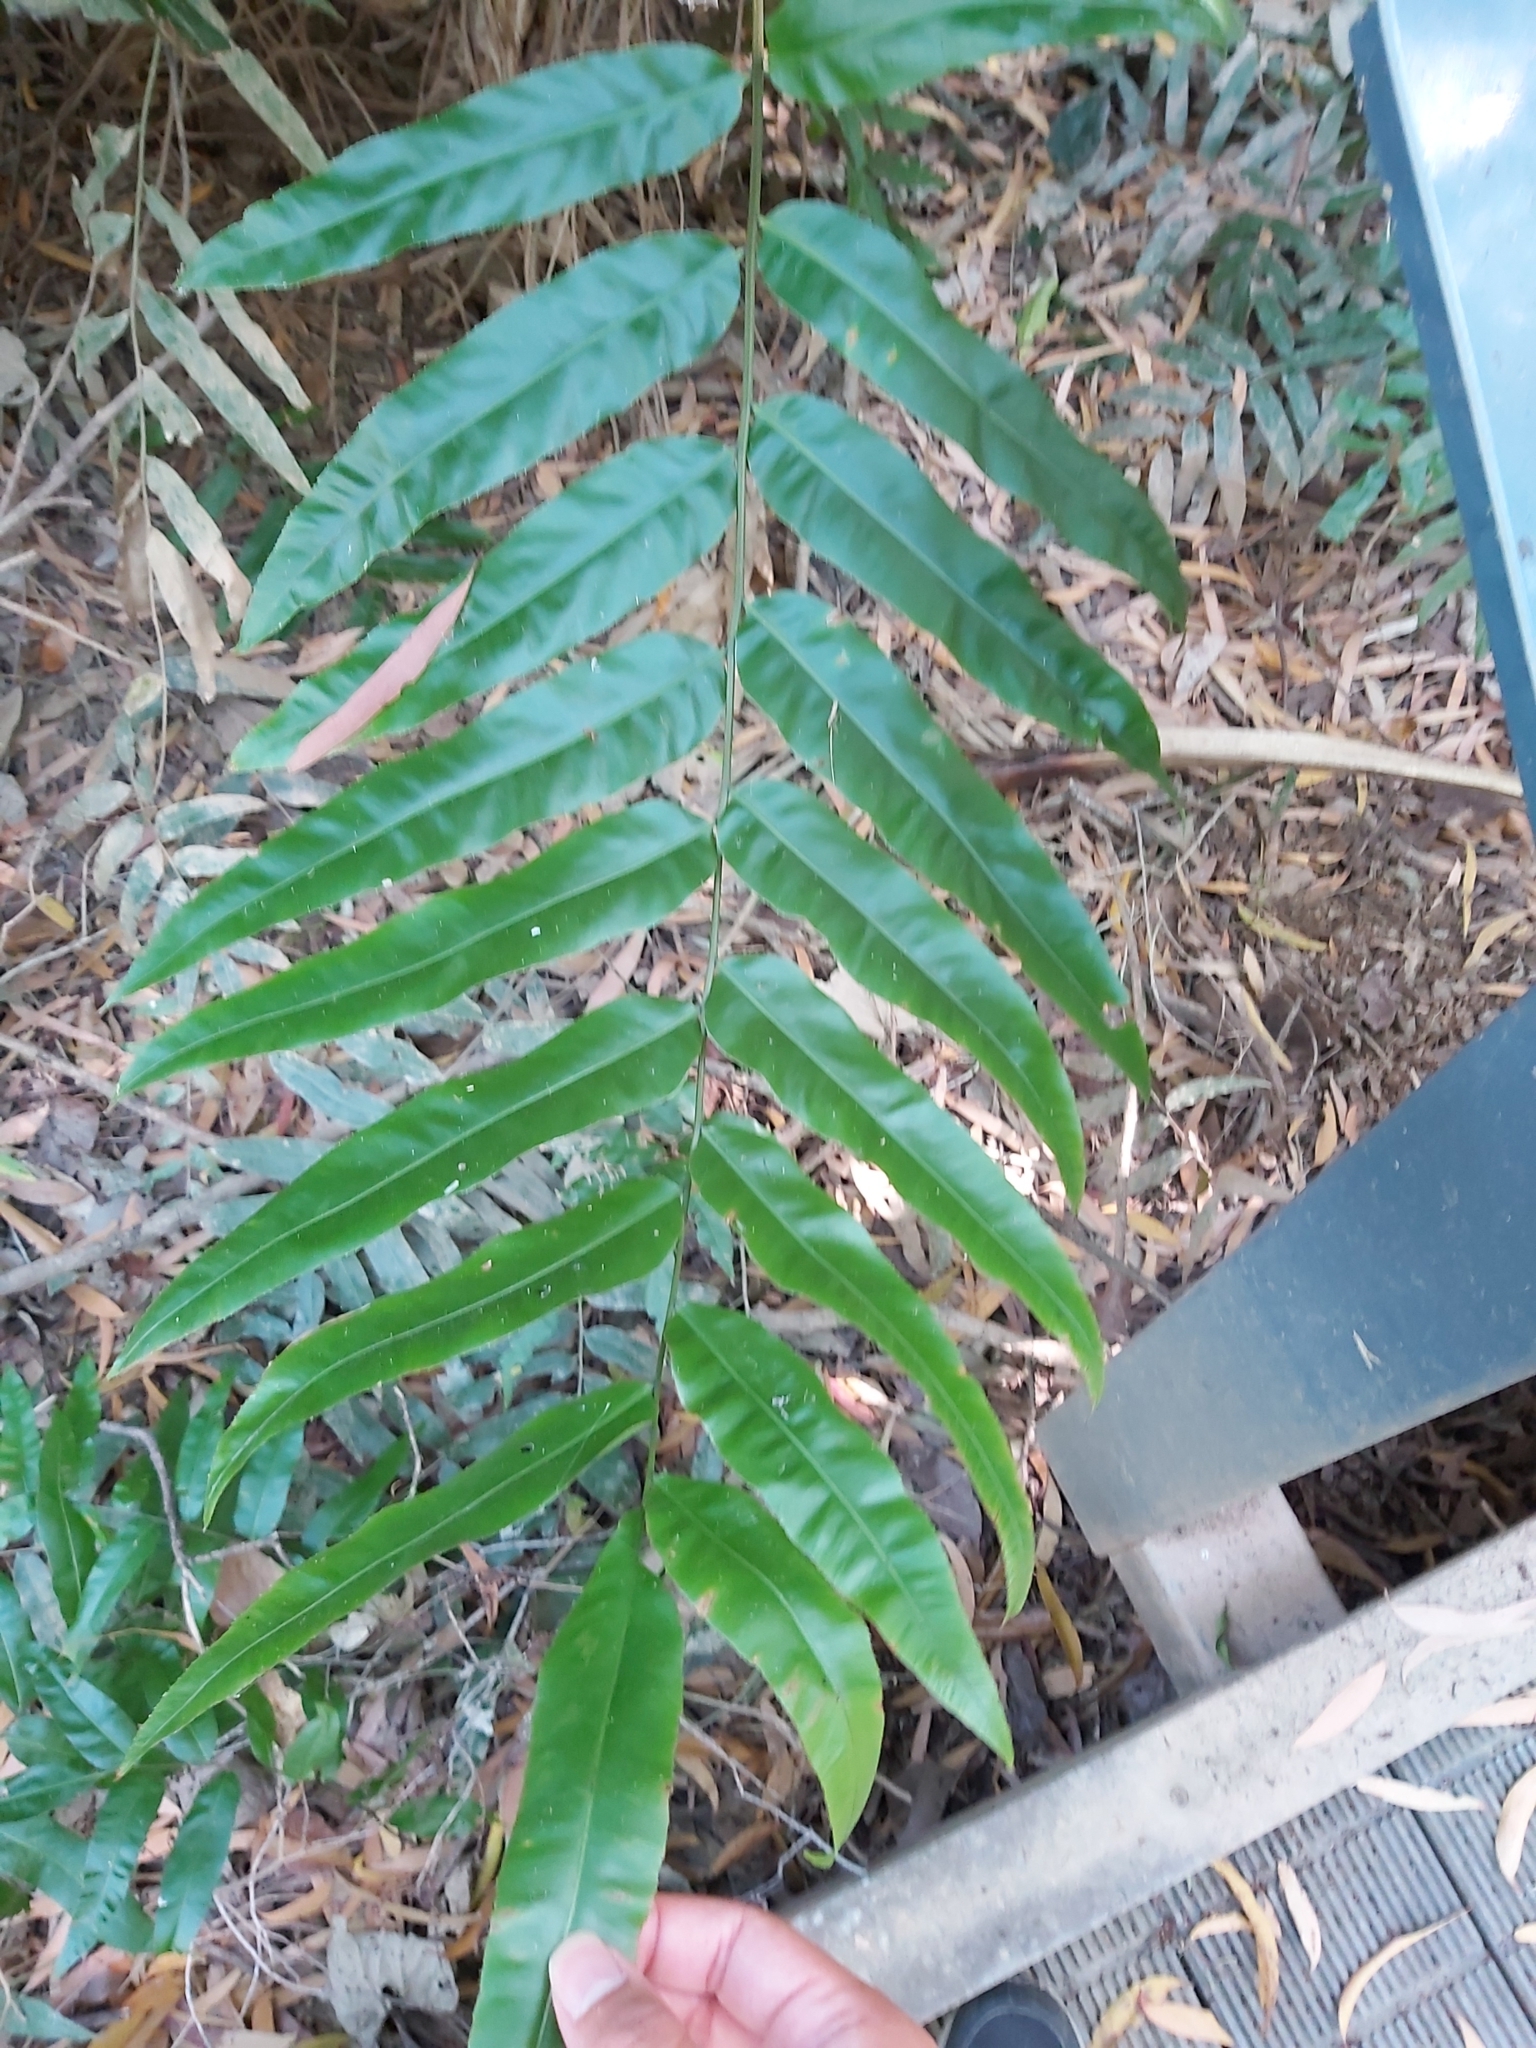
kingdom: Plantae
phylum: Tracheophyta
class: Polypodiopsida
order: Polypodiales
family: Blechnaceae
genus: Stenochlaena
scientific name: Stenochlaena palustris
